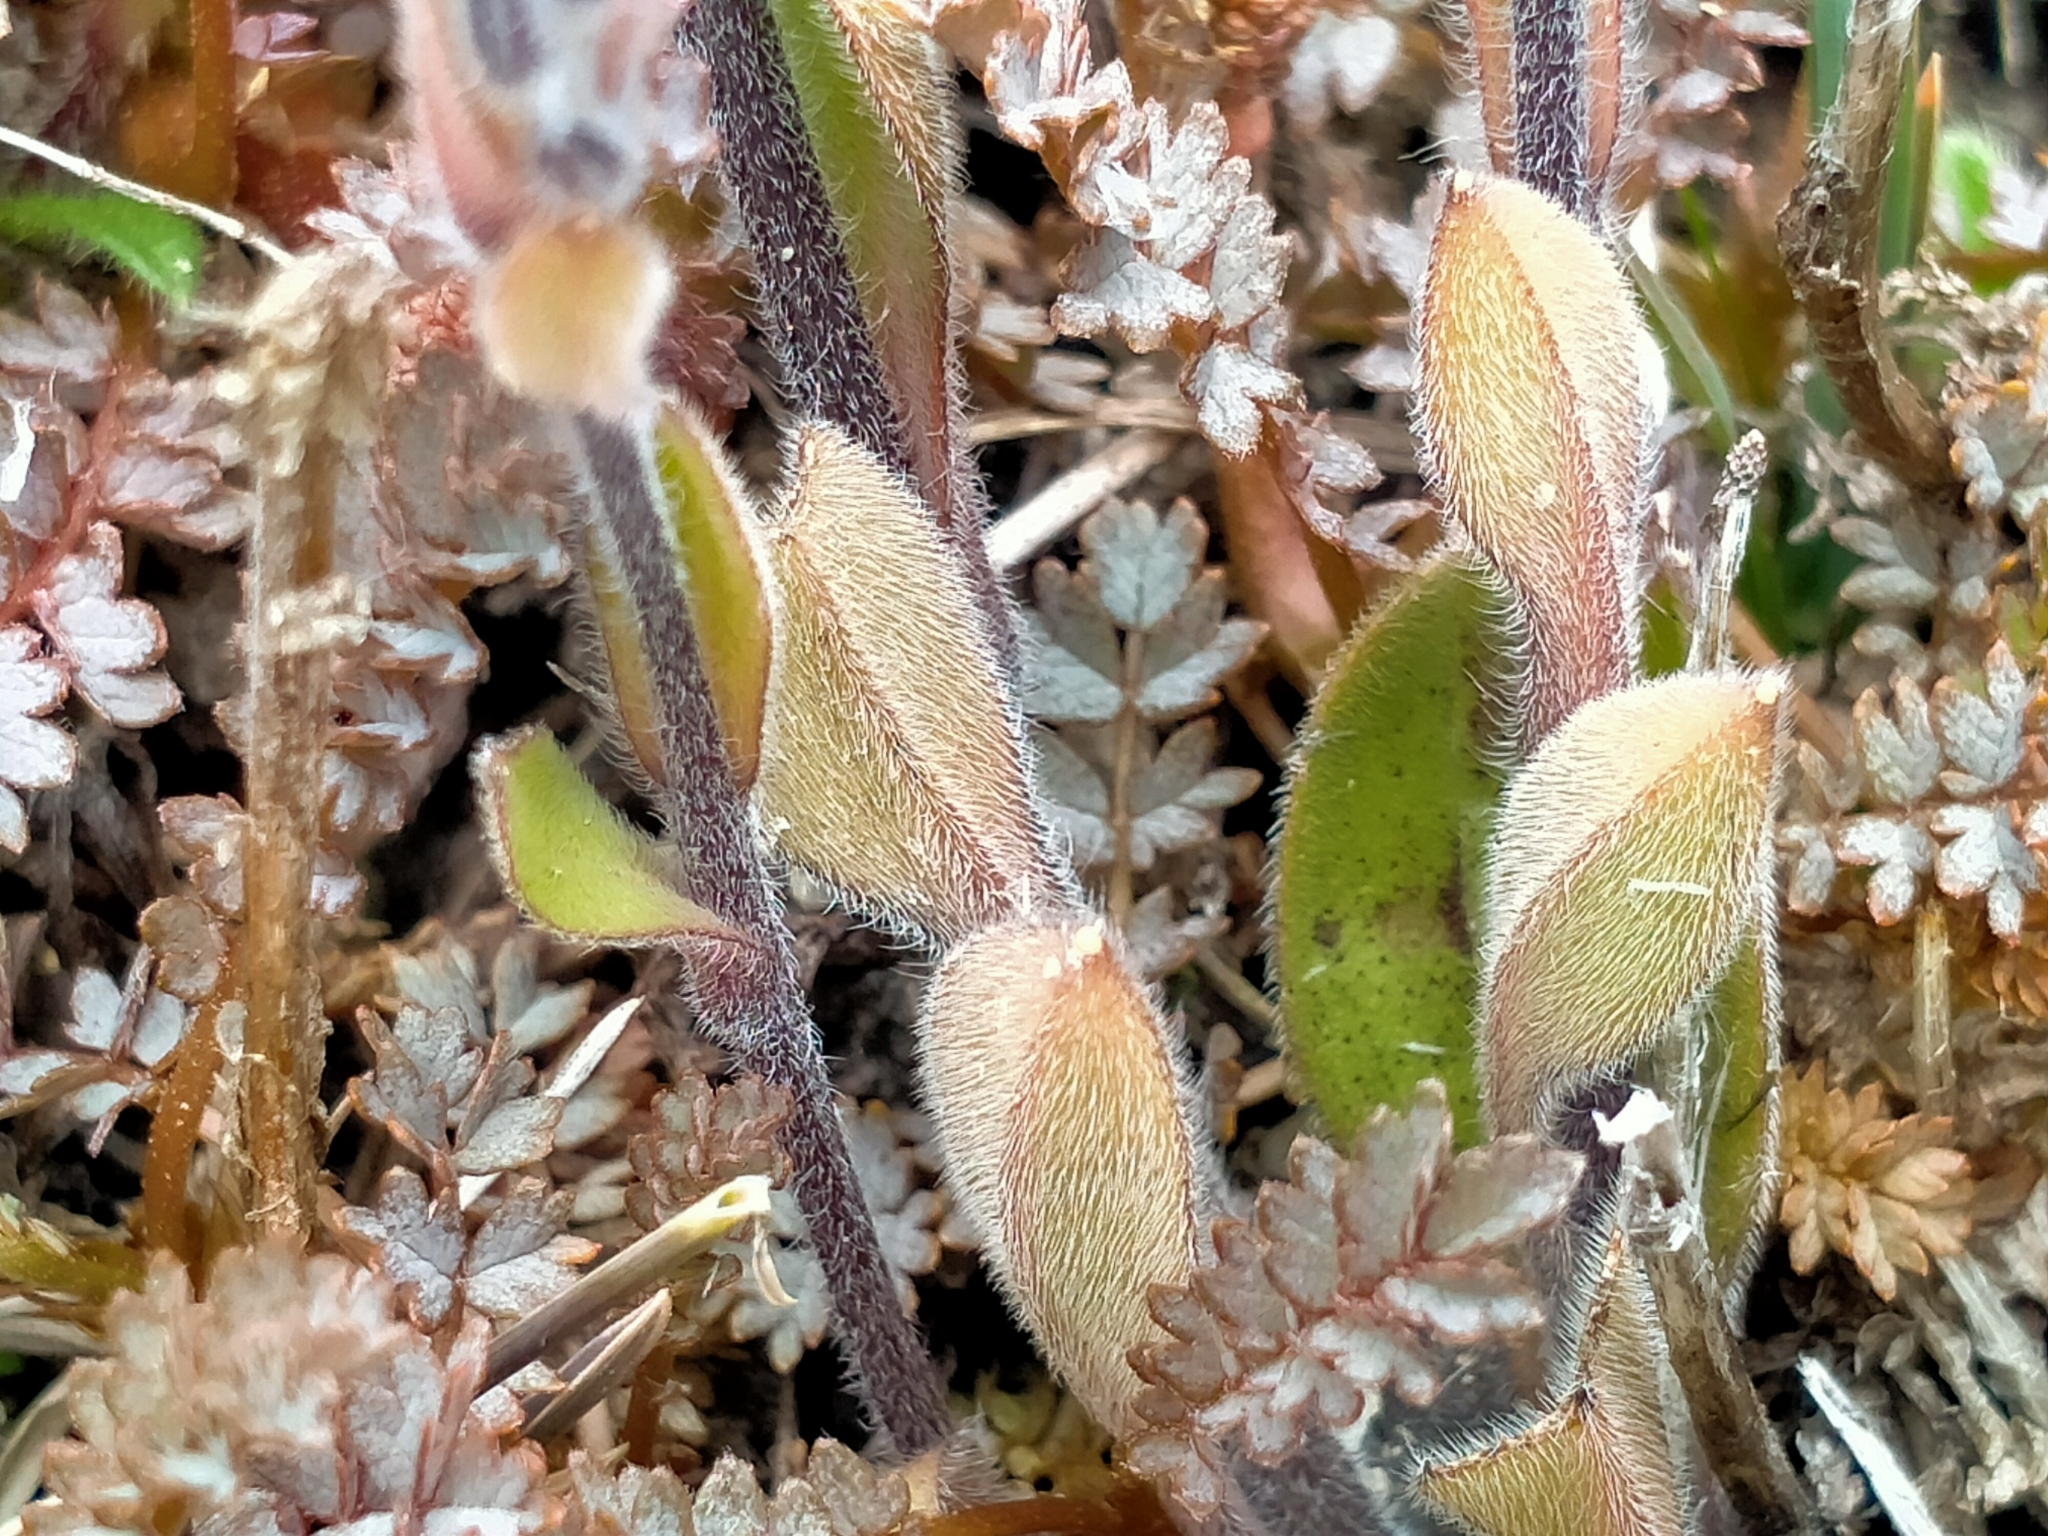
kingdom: Plantae
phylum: Tracheophyta
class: Magnoliopsida
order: Boraginales
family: Boraginaceae
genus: Myosotis
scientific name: Myosotis australis
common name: Australian forget-me-not
